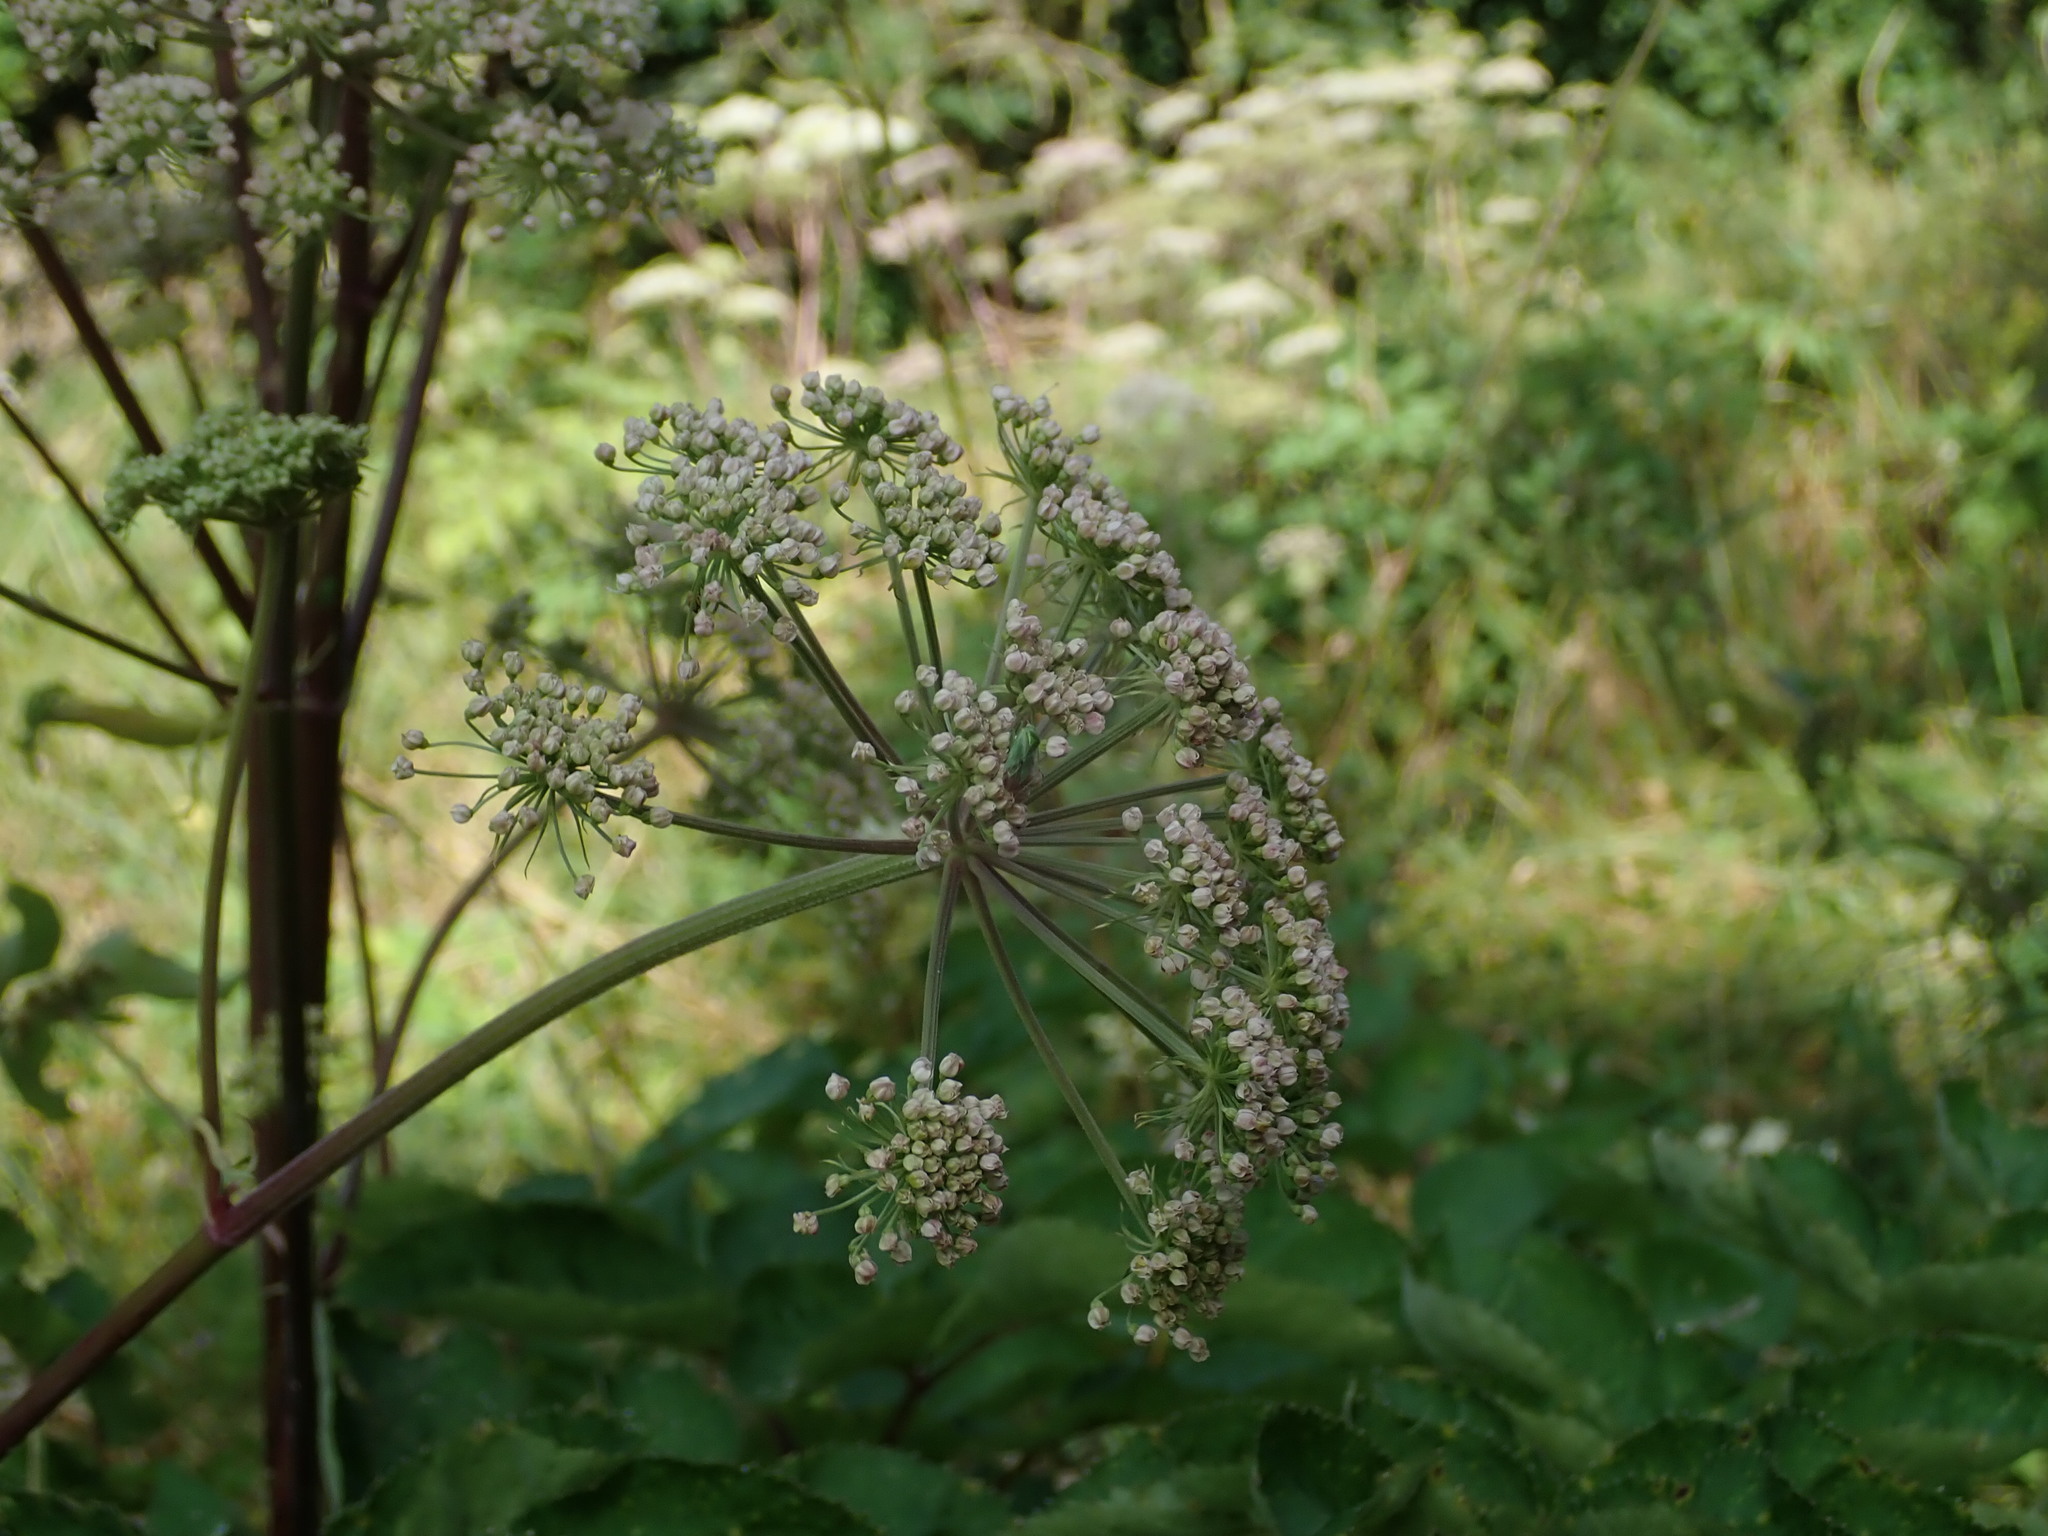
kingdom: Plantae
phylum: Tracheophyta
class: Magnoliopsida
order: Apiales
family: Apiaceae
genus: Angelica
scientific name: Angelica sylvestris
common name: Wild angelica
